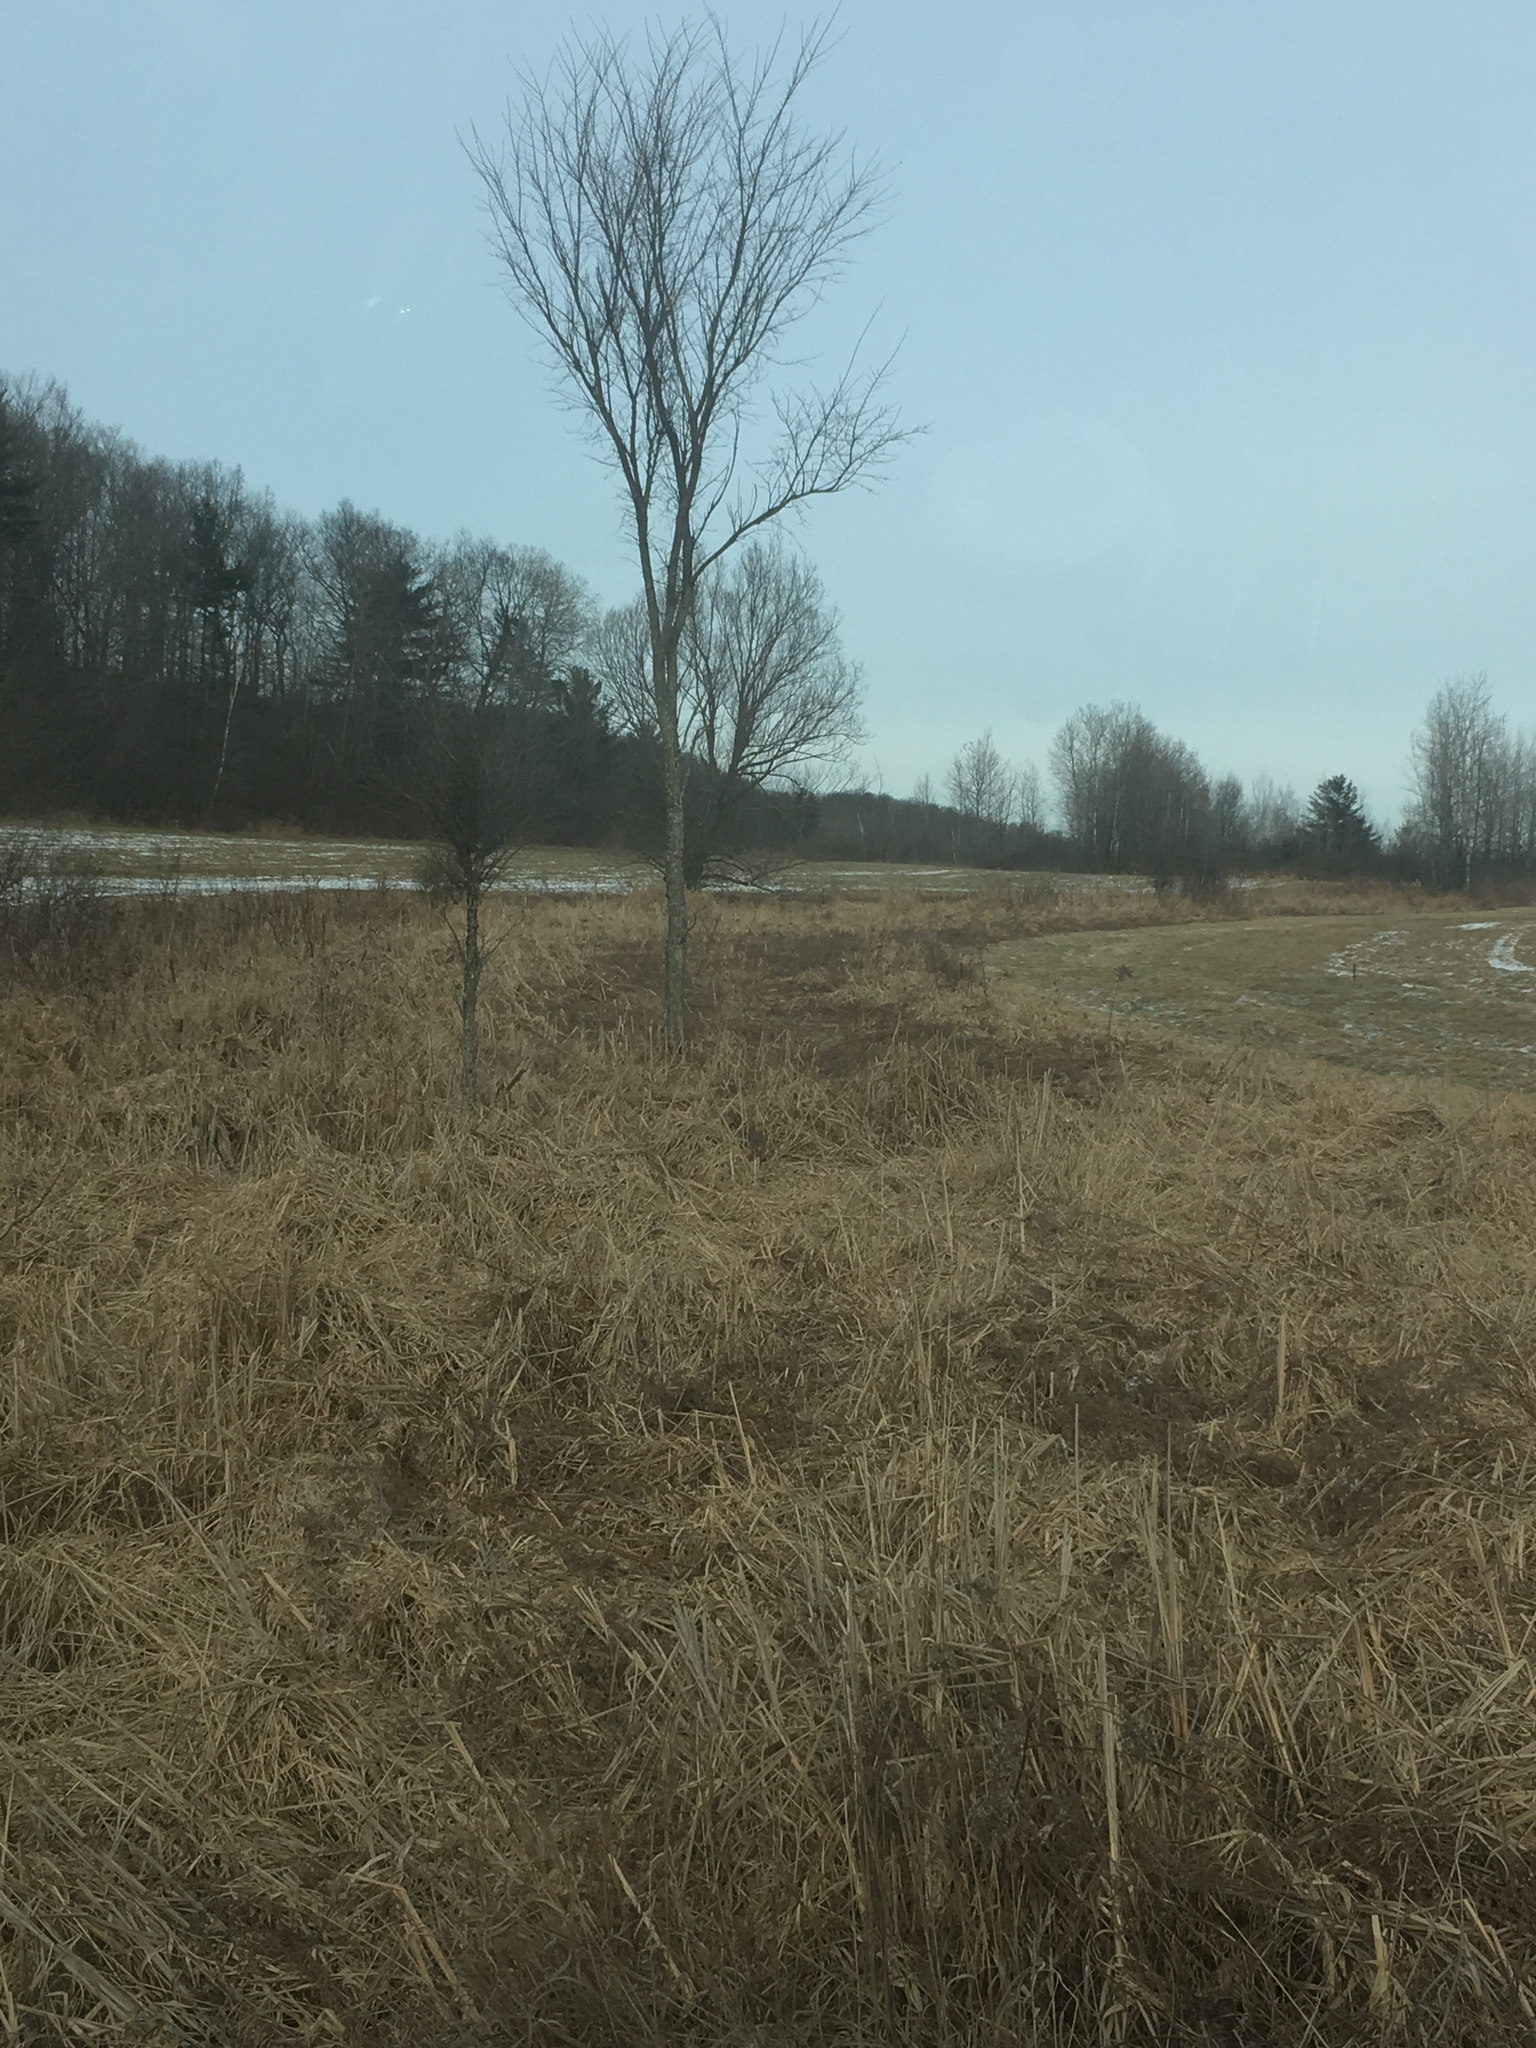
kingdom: Plantae
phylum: Tracheophyta
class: Magnoliopsida
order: Rosales
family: Ulmaceae
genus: Ulmus
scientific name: Ulmus americana
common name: American elm
